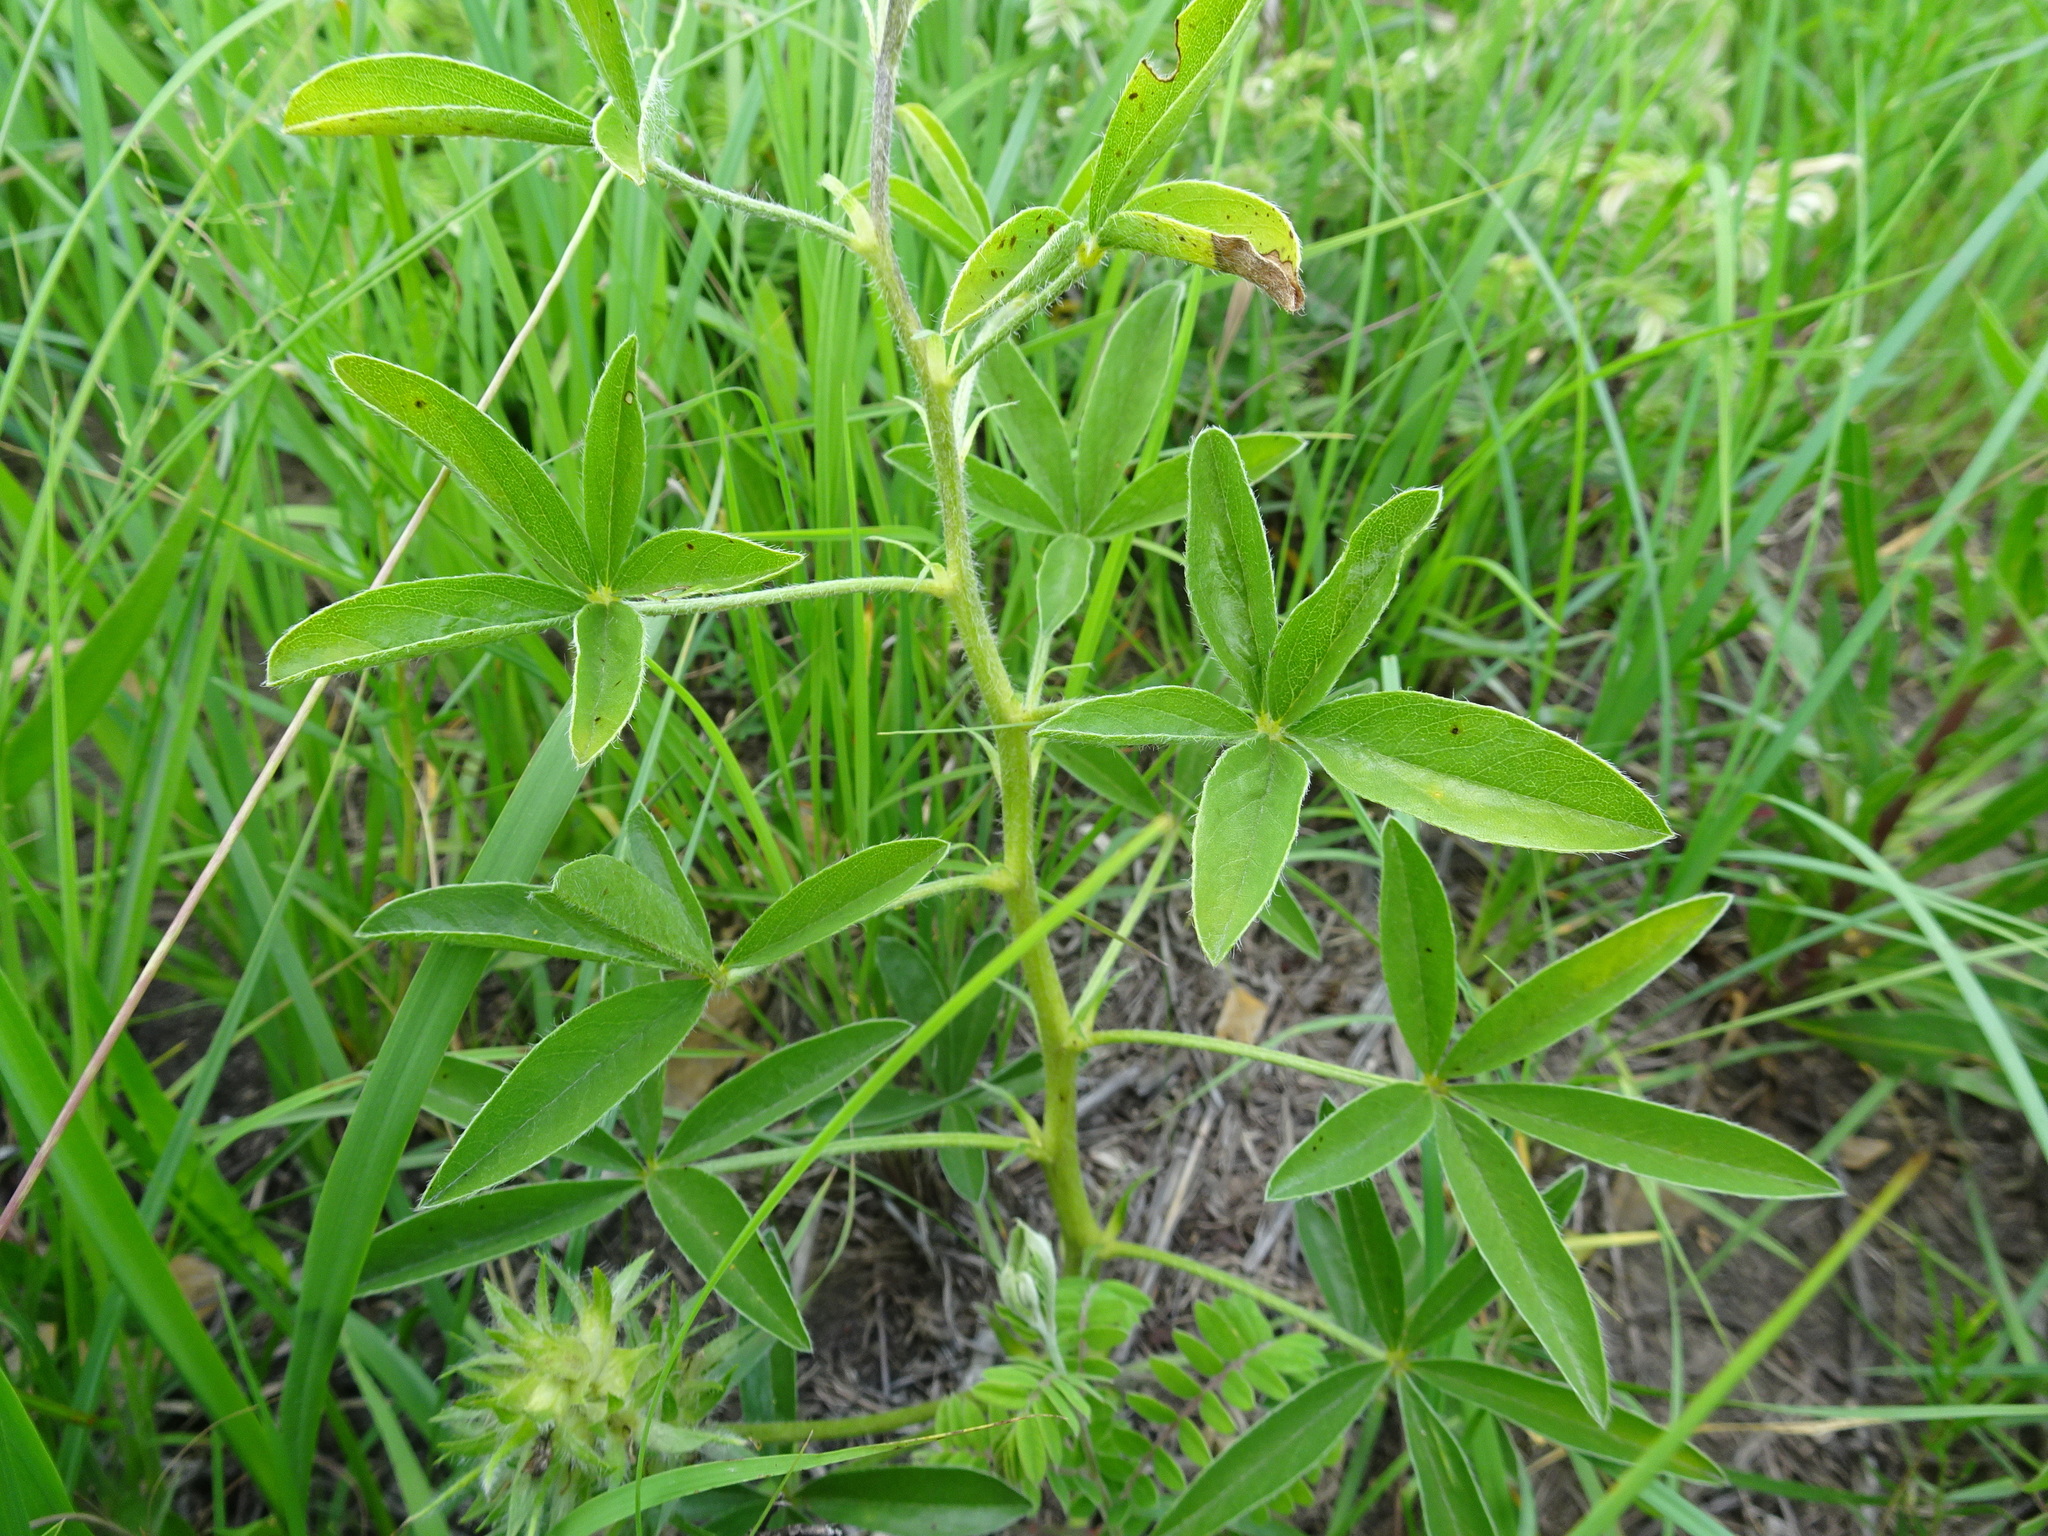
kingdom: Plantae
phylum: Tracheophyta
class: Magnoliopsida
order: Fabales
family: Fabaceae
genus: Pediomelum
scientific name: Pediomelum esculentum
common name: Indian-turnip
